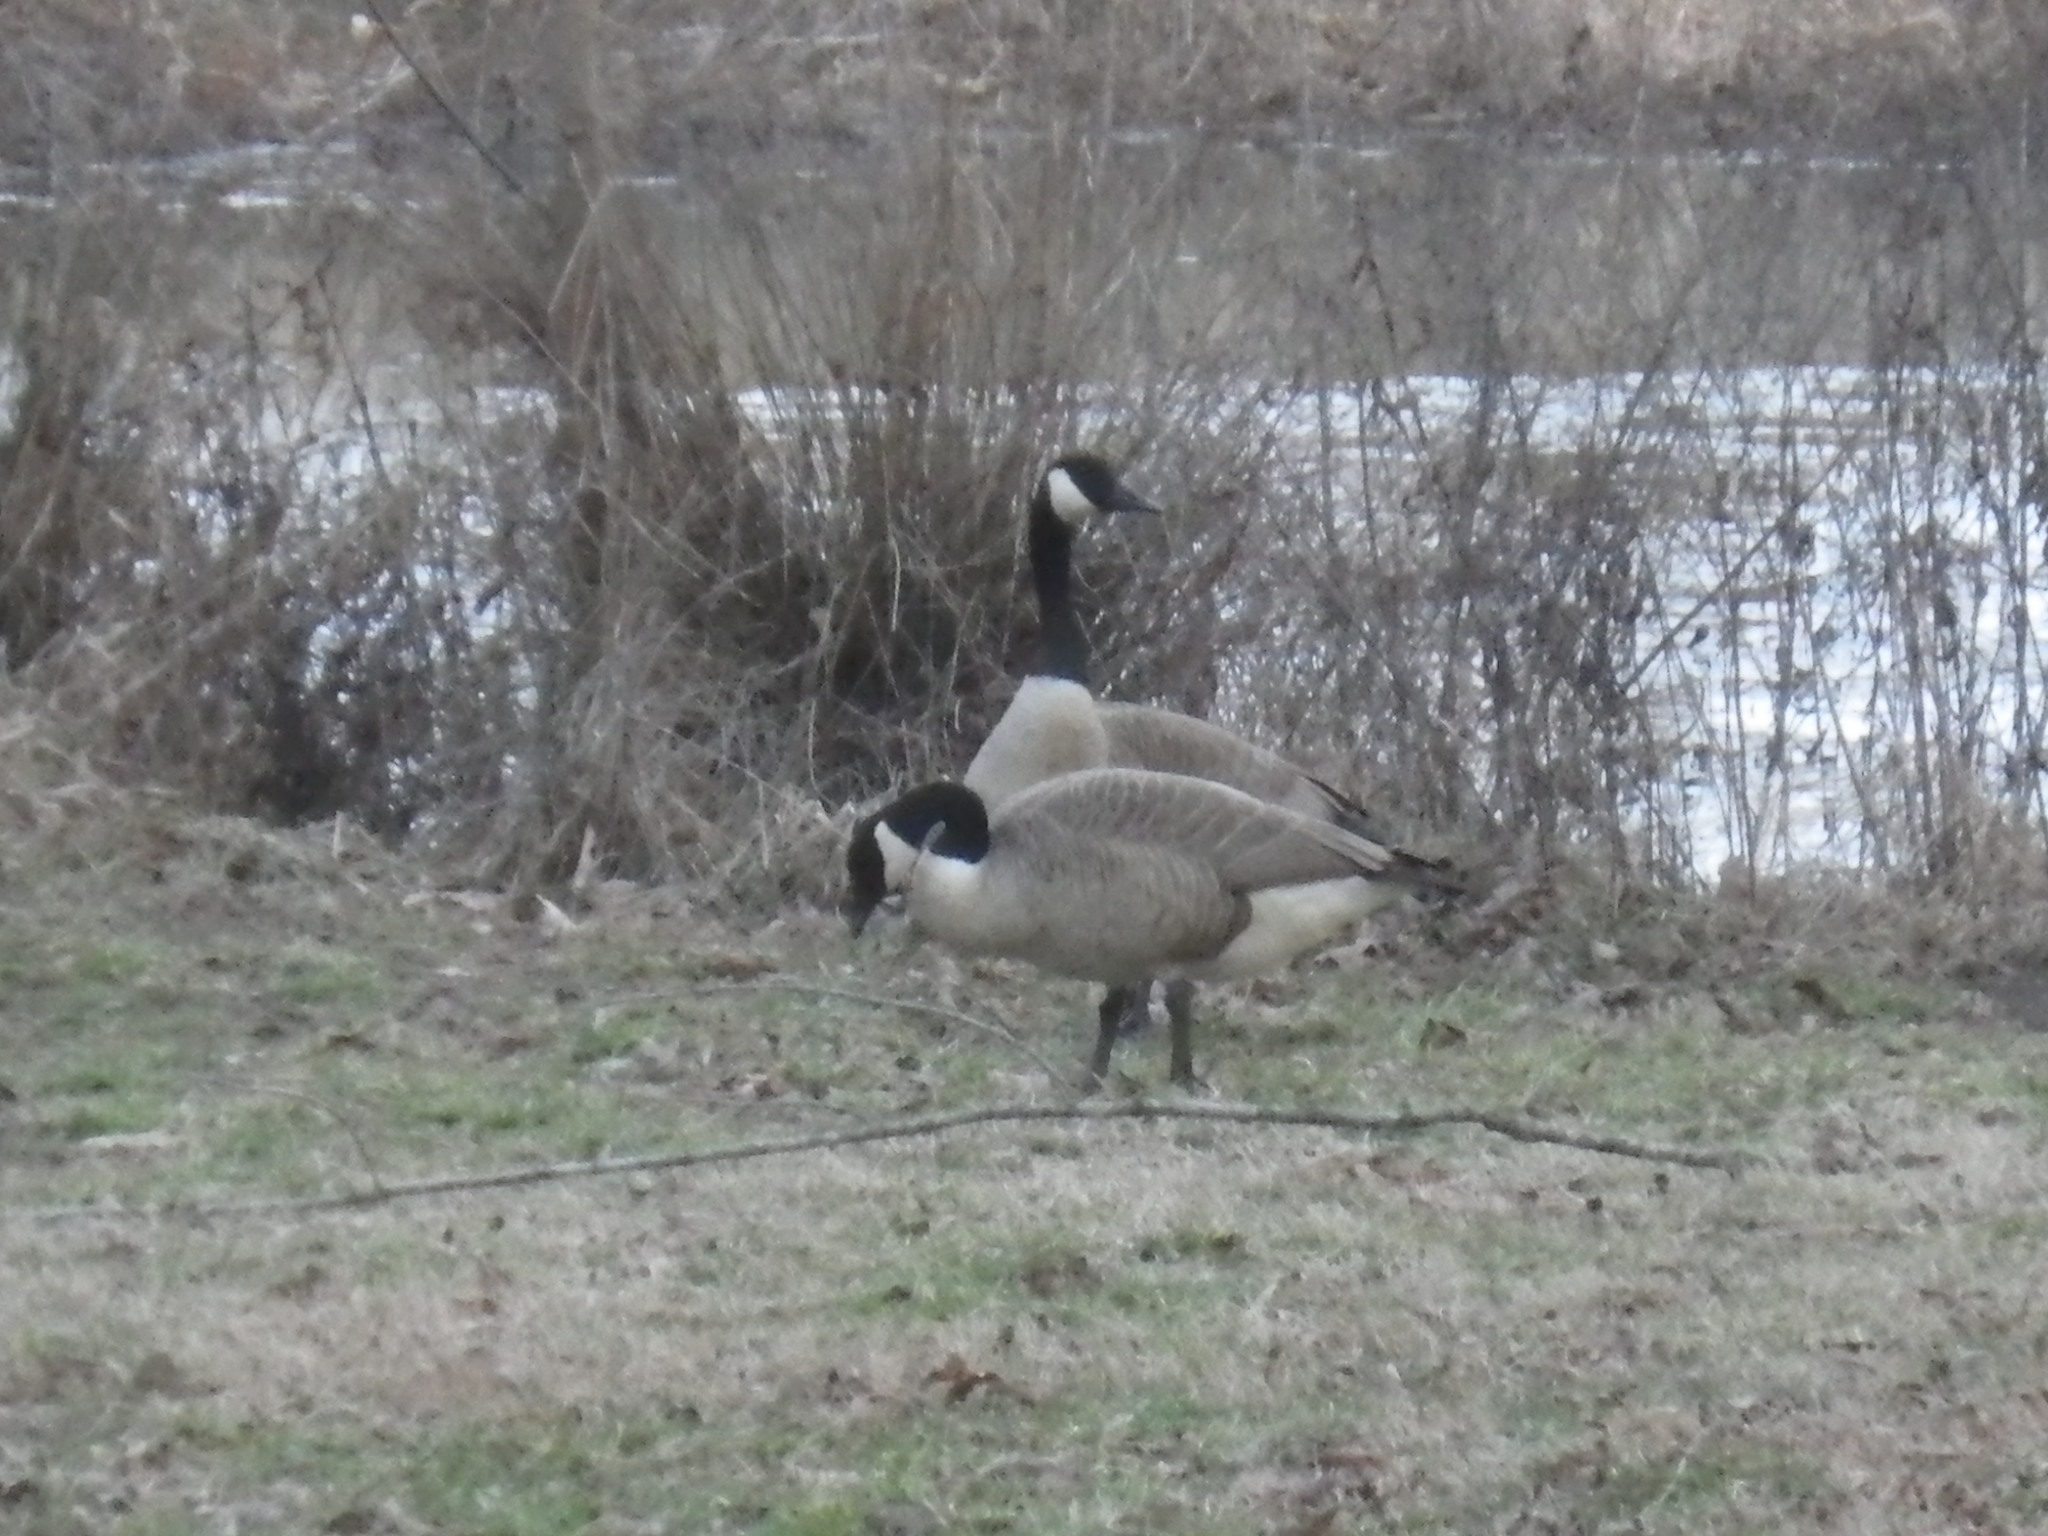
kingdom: Animalia
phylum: Chordata
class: Aves
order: Anseriformes
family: Anatidae
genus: Branta
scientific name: Branta canadensis
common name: Canada goose
